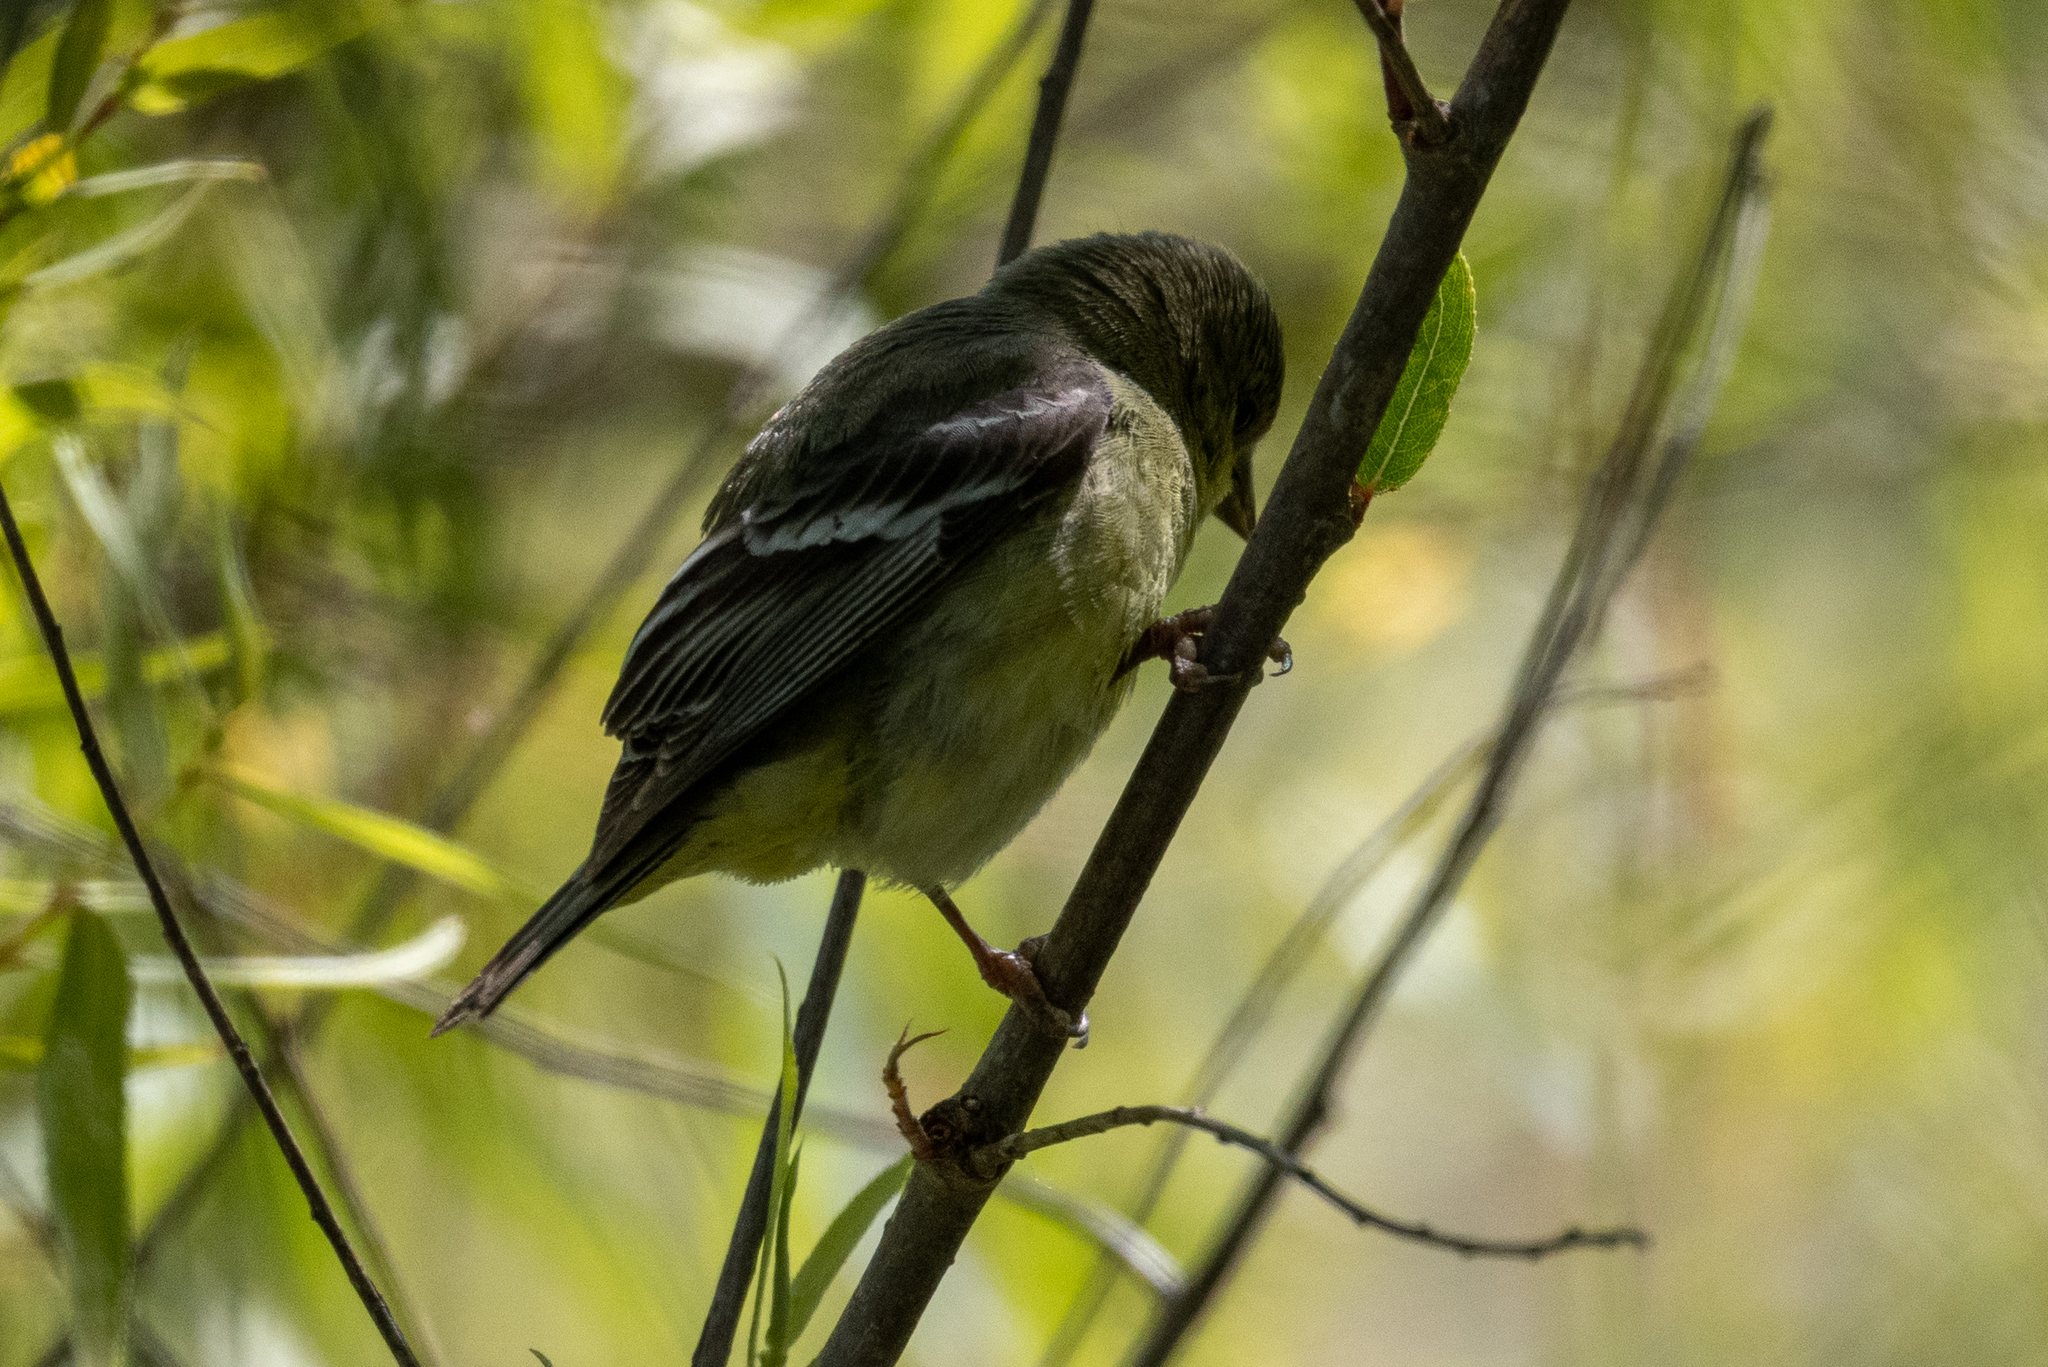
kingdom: Animalia
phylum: Chordata
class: Aves
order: Passeriformes
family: Fringillidae
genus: Spinus
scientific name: Spinus psaltria
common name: Lesser goldfinch
